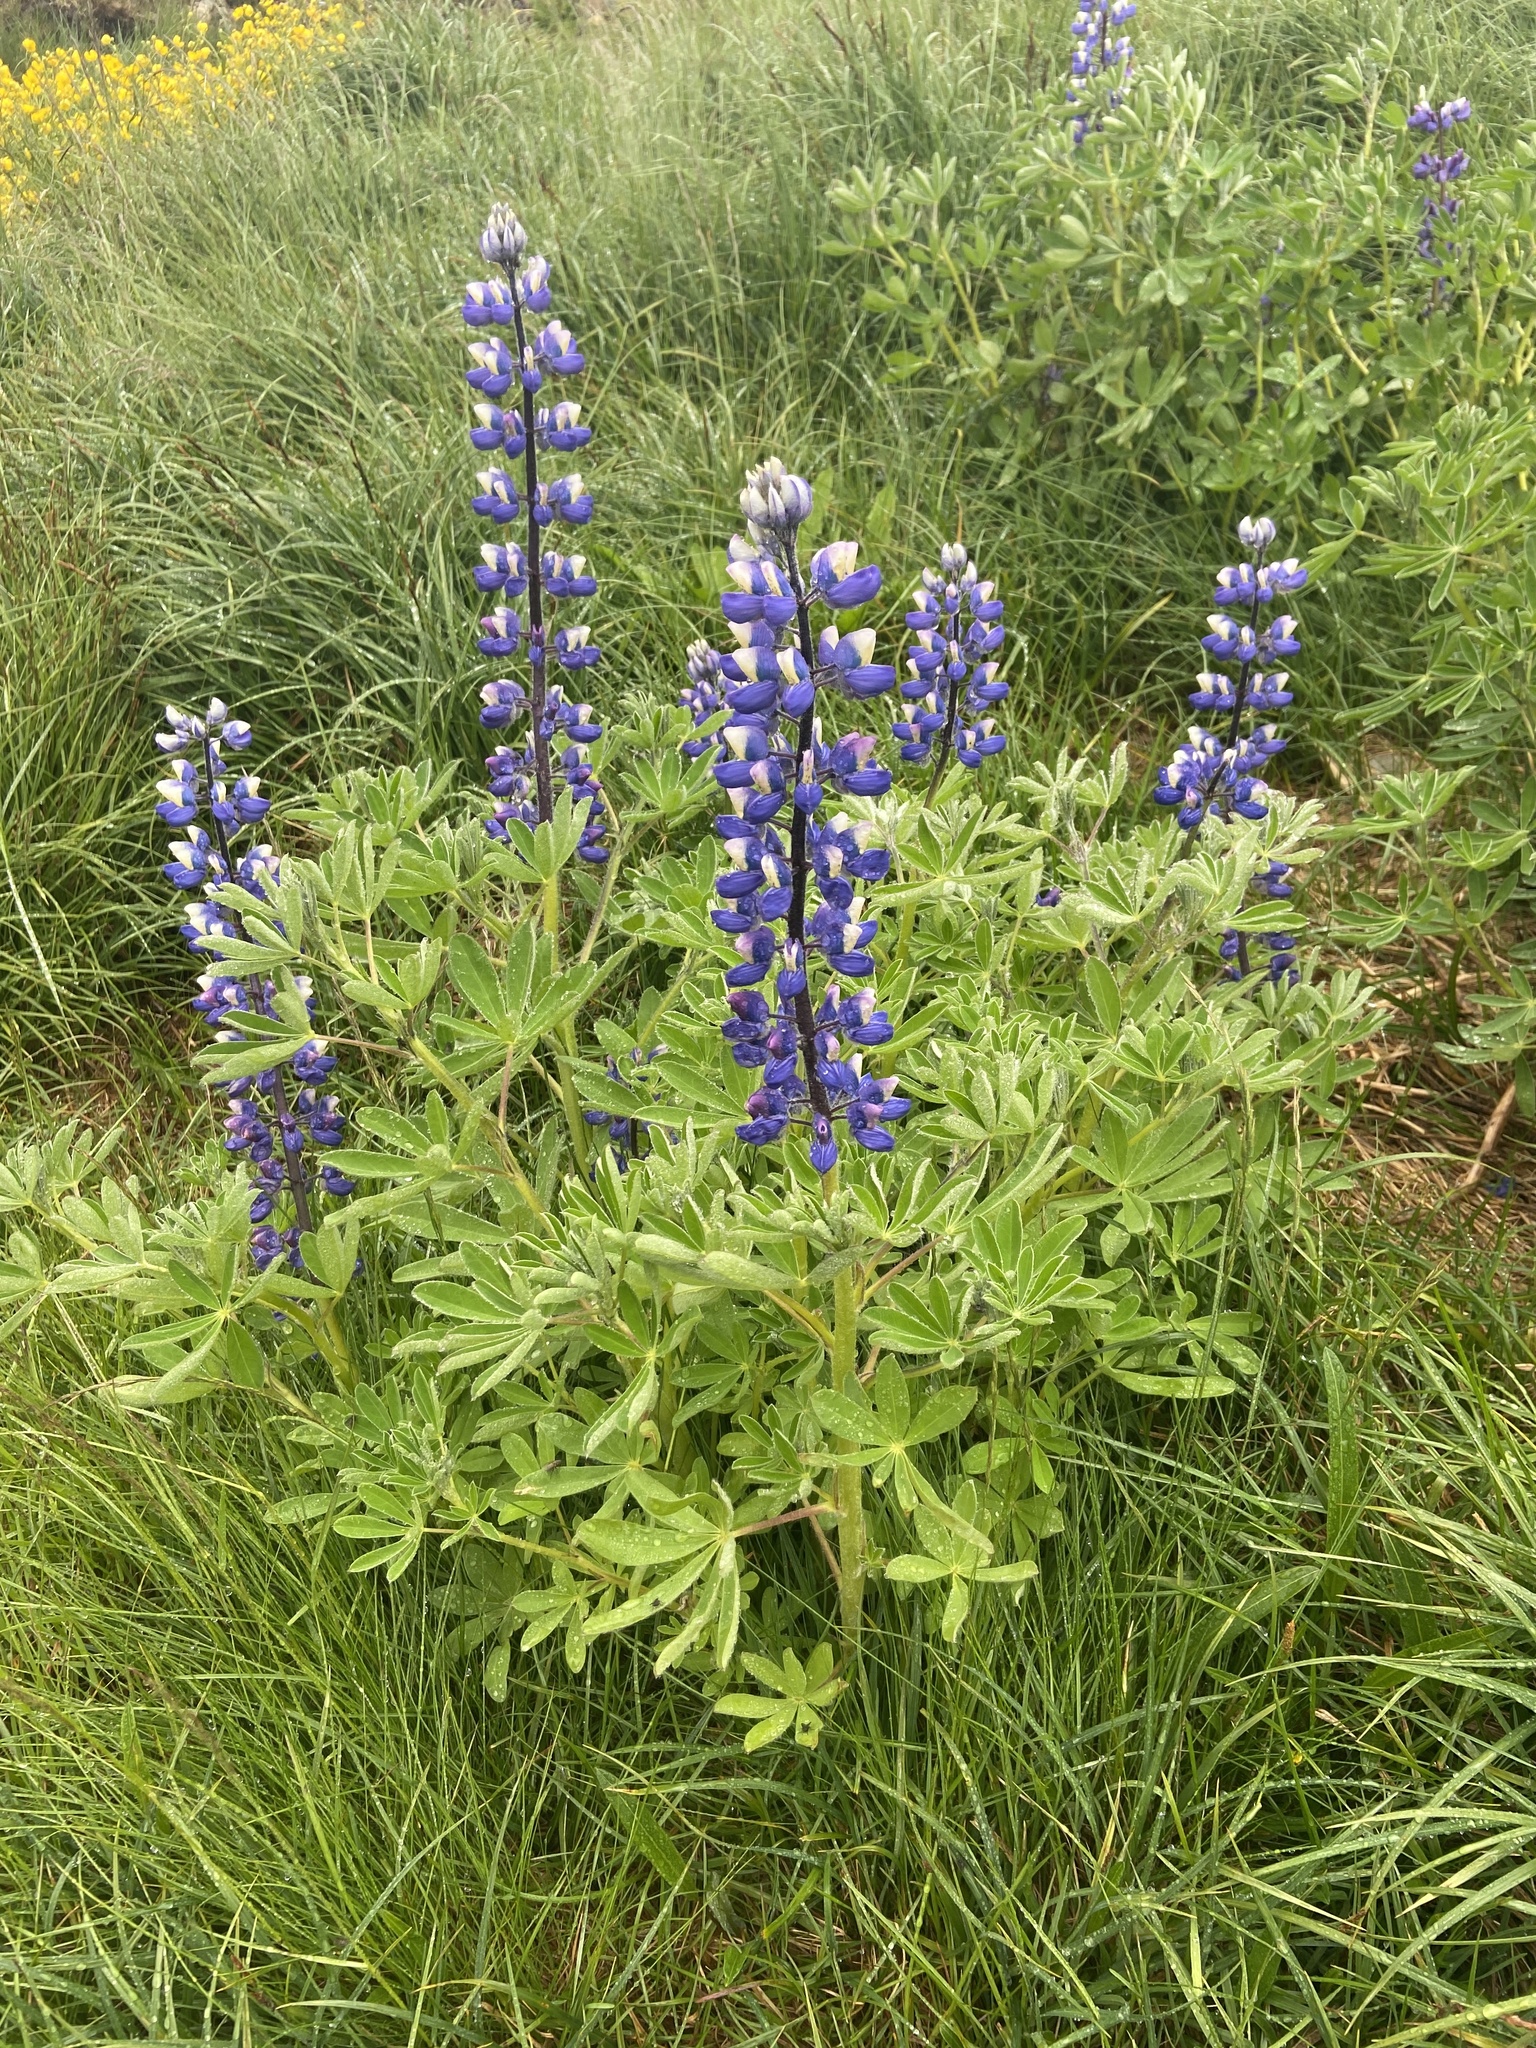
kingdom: Plantae
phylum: Tracheophyta
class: Magnoliopsida
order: Fabales
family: Fabaceae
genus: Lupinus
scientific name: Lupinus nootkatensis
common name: Nootka lupine
